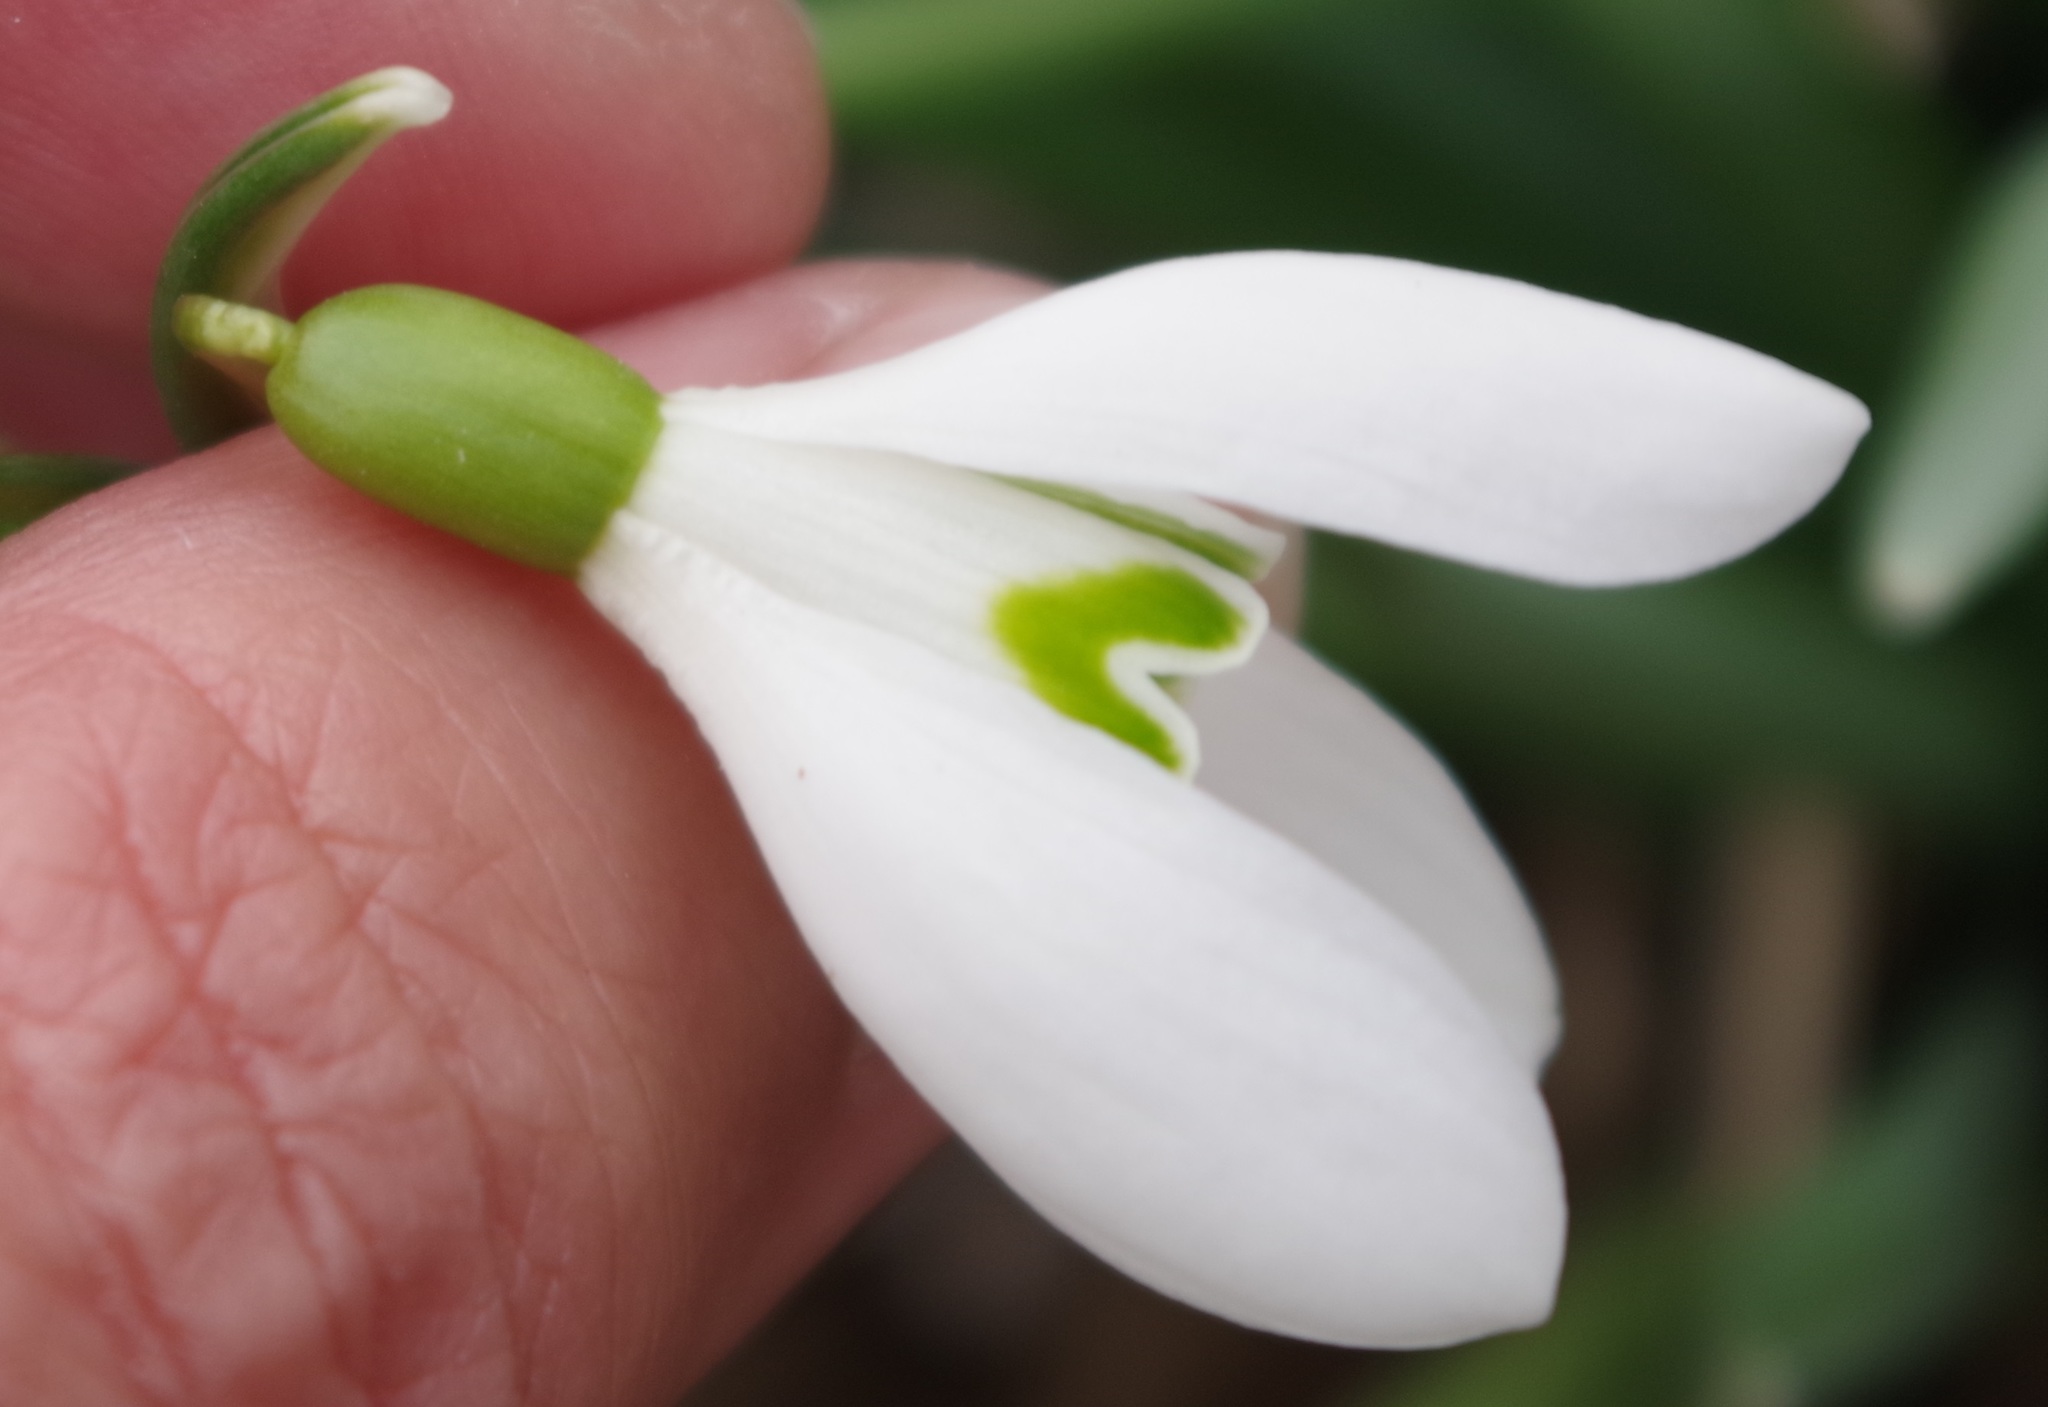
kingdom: Plantae
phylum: Tracheophyta
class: Liliopsida
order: Asparagales
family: Amaryllidaceae
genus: Galanthus
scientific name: Galanthus nivalis
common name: Snowdrop
